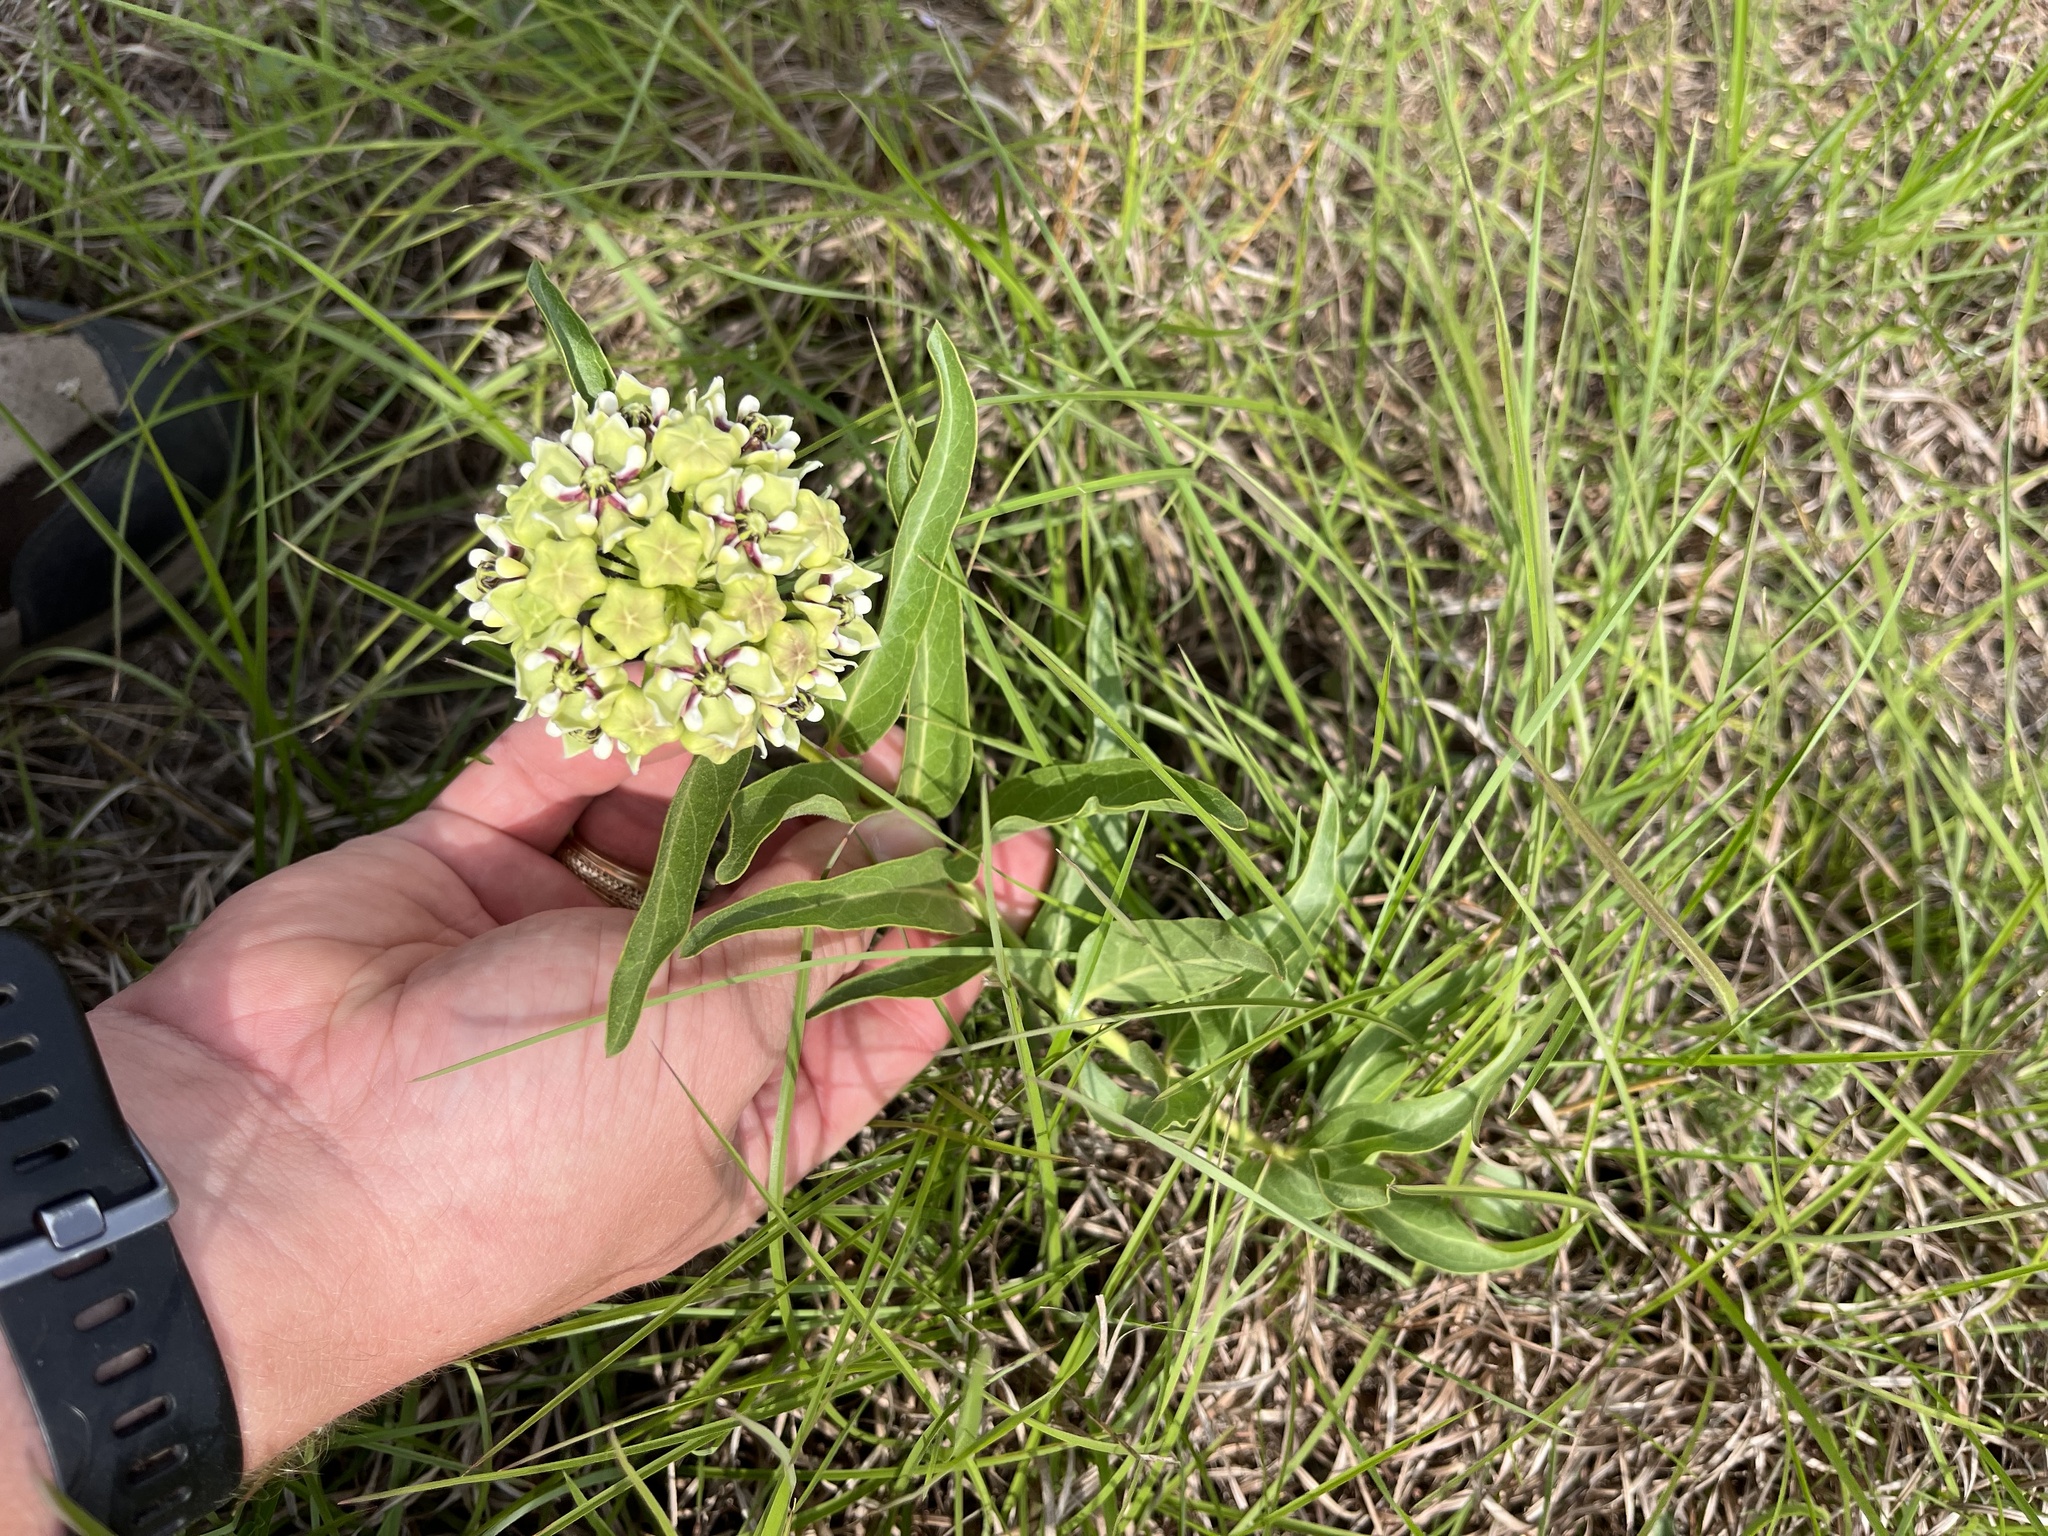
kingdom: Plantae
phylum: Tracheophyta
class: Magnoliopsida
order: Gentianales
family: Apocynaceae
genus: Asclepias
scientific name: Asclepias asperula
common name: Antelope horns
